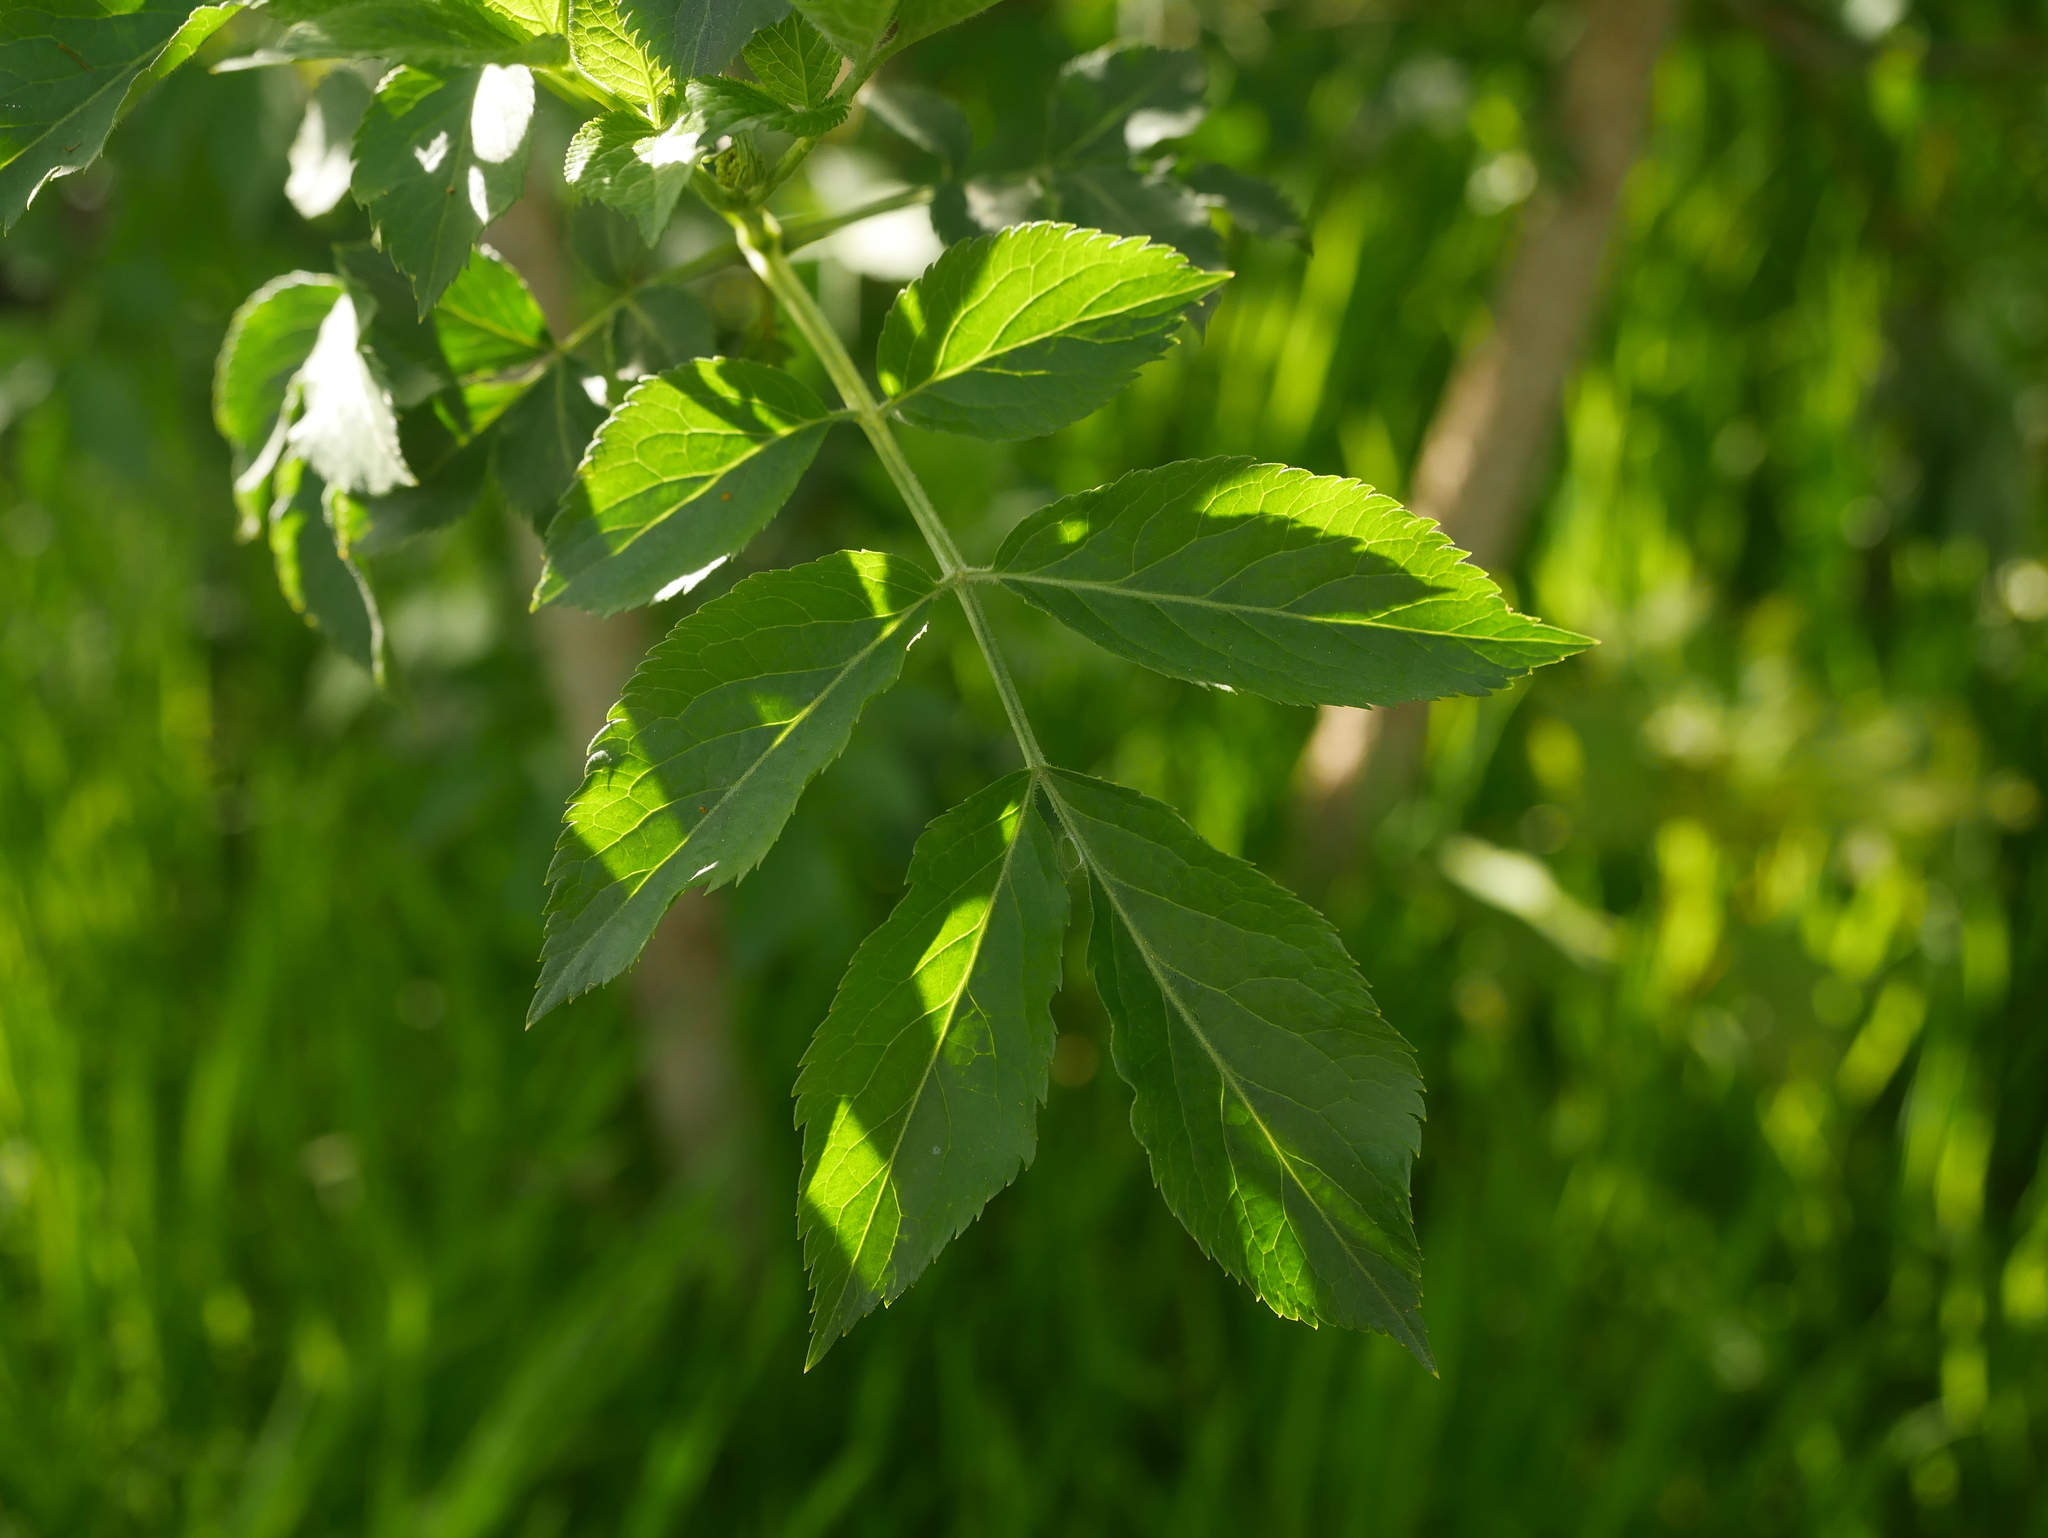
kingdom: Plantae
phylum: Tracheophyta
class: Magnoliopsida
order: Dipsacales
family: Viburnaceae
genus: Sambucus
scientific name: Sambucus nigra
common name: Elder
